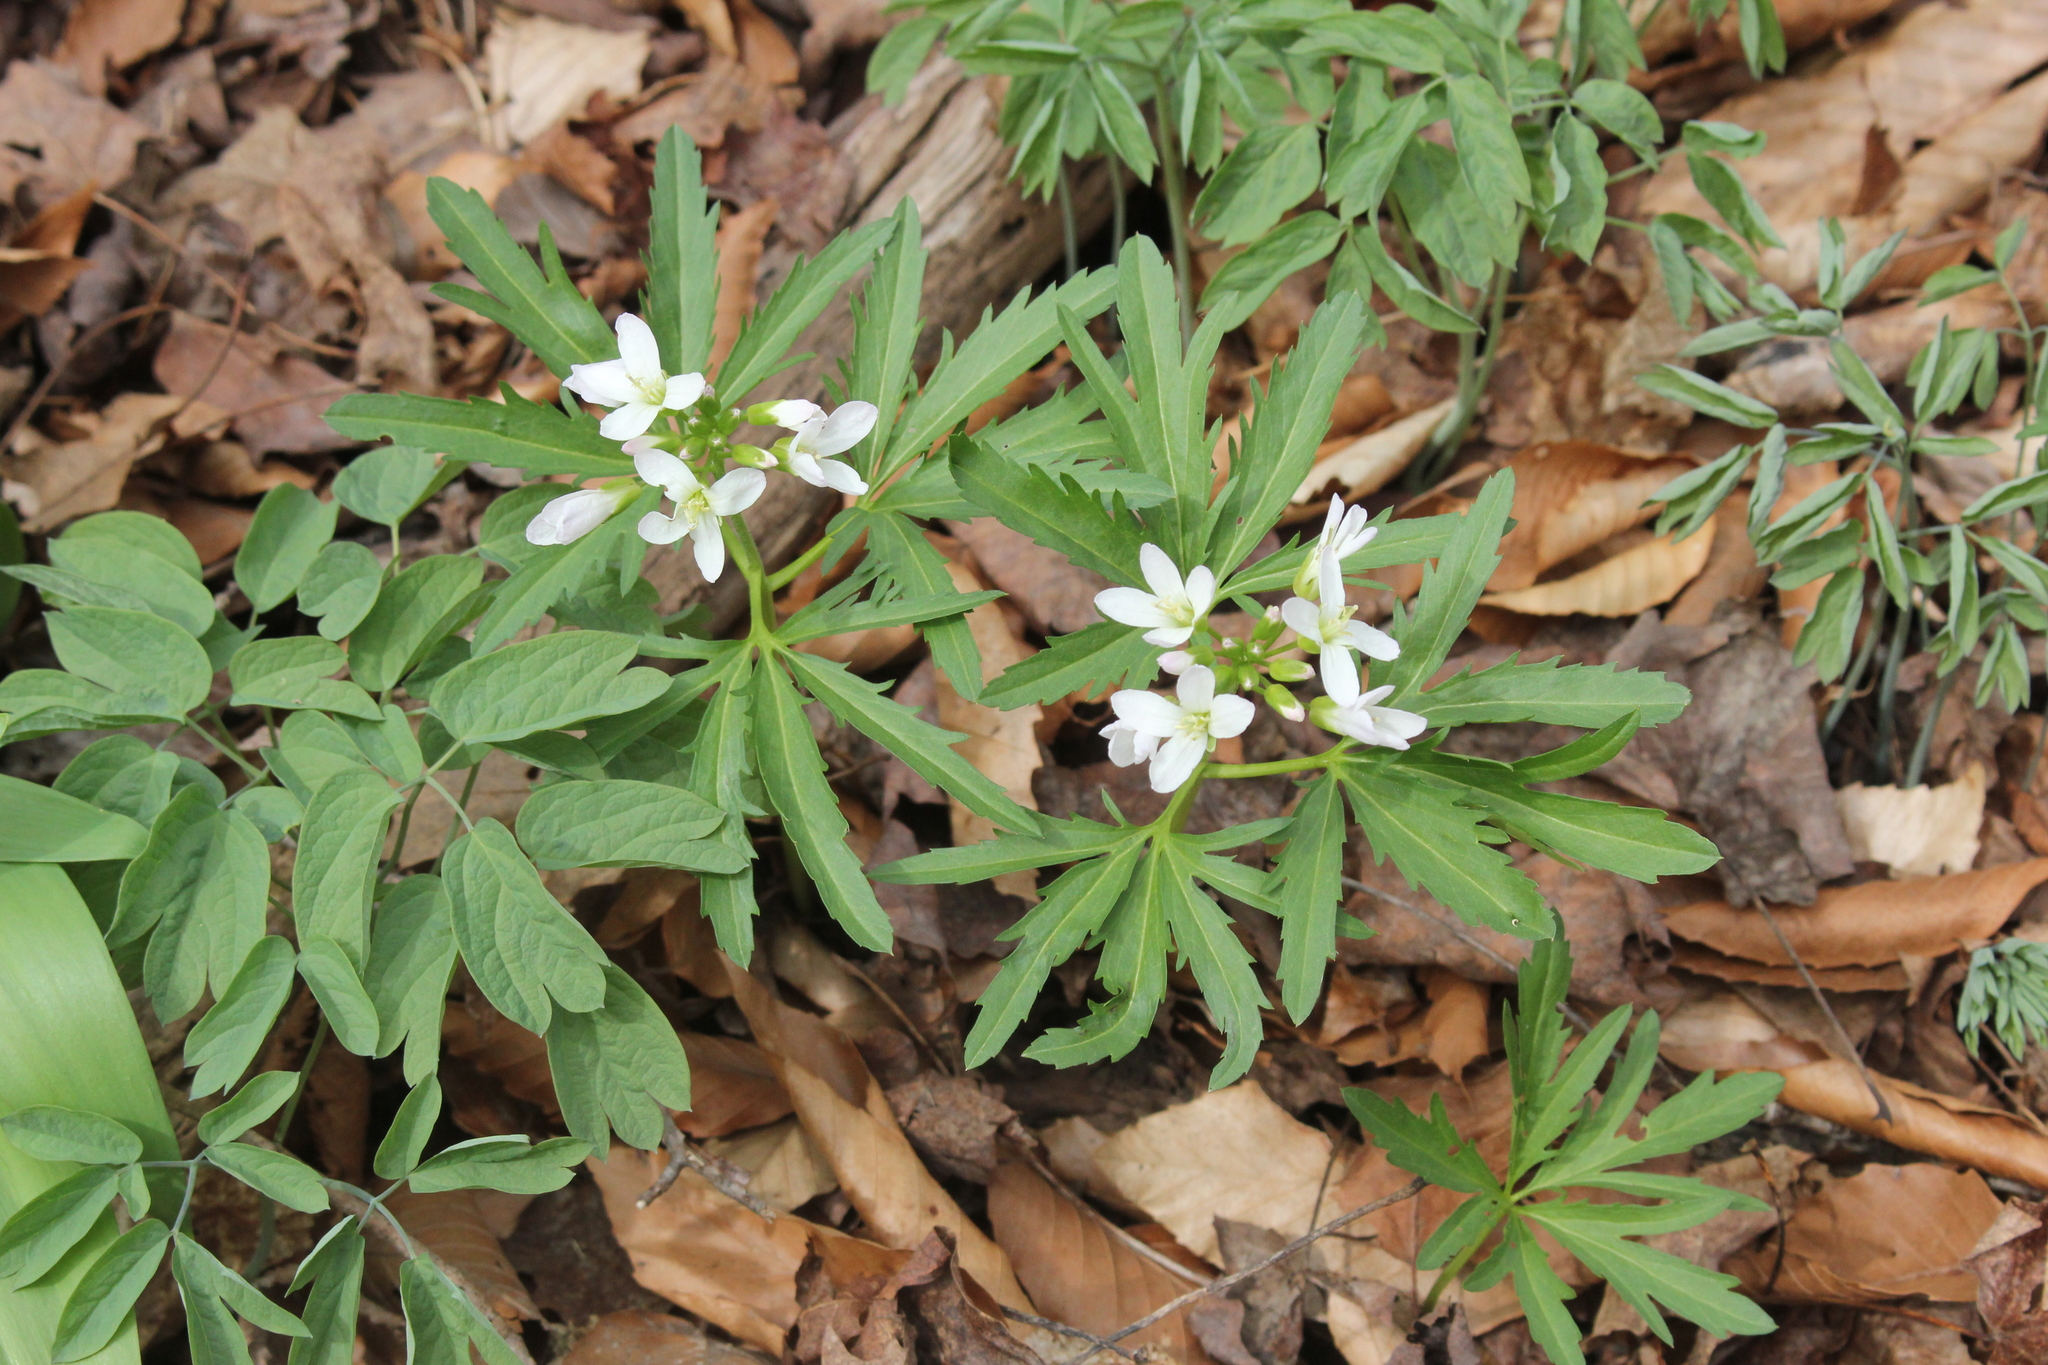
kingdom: Plantae
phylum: Tracheophyta
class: Magnoliopsida
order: Brassicales
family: Brassicaceae
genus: Cardamine
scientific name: Cardamine concatenata
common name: Cut-leaf toothcup
